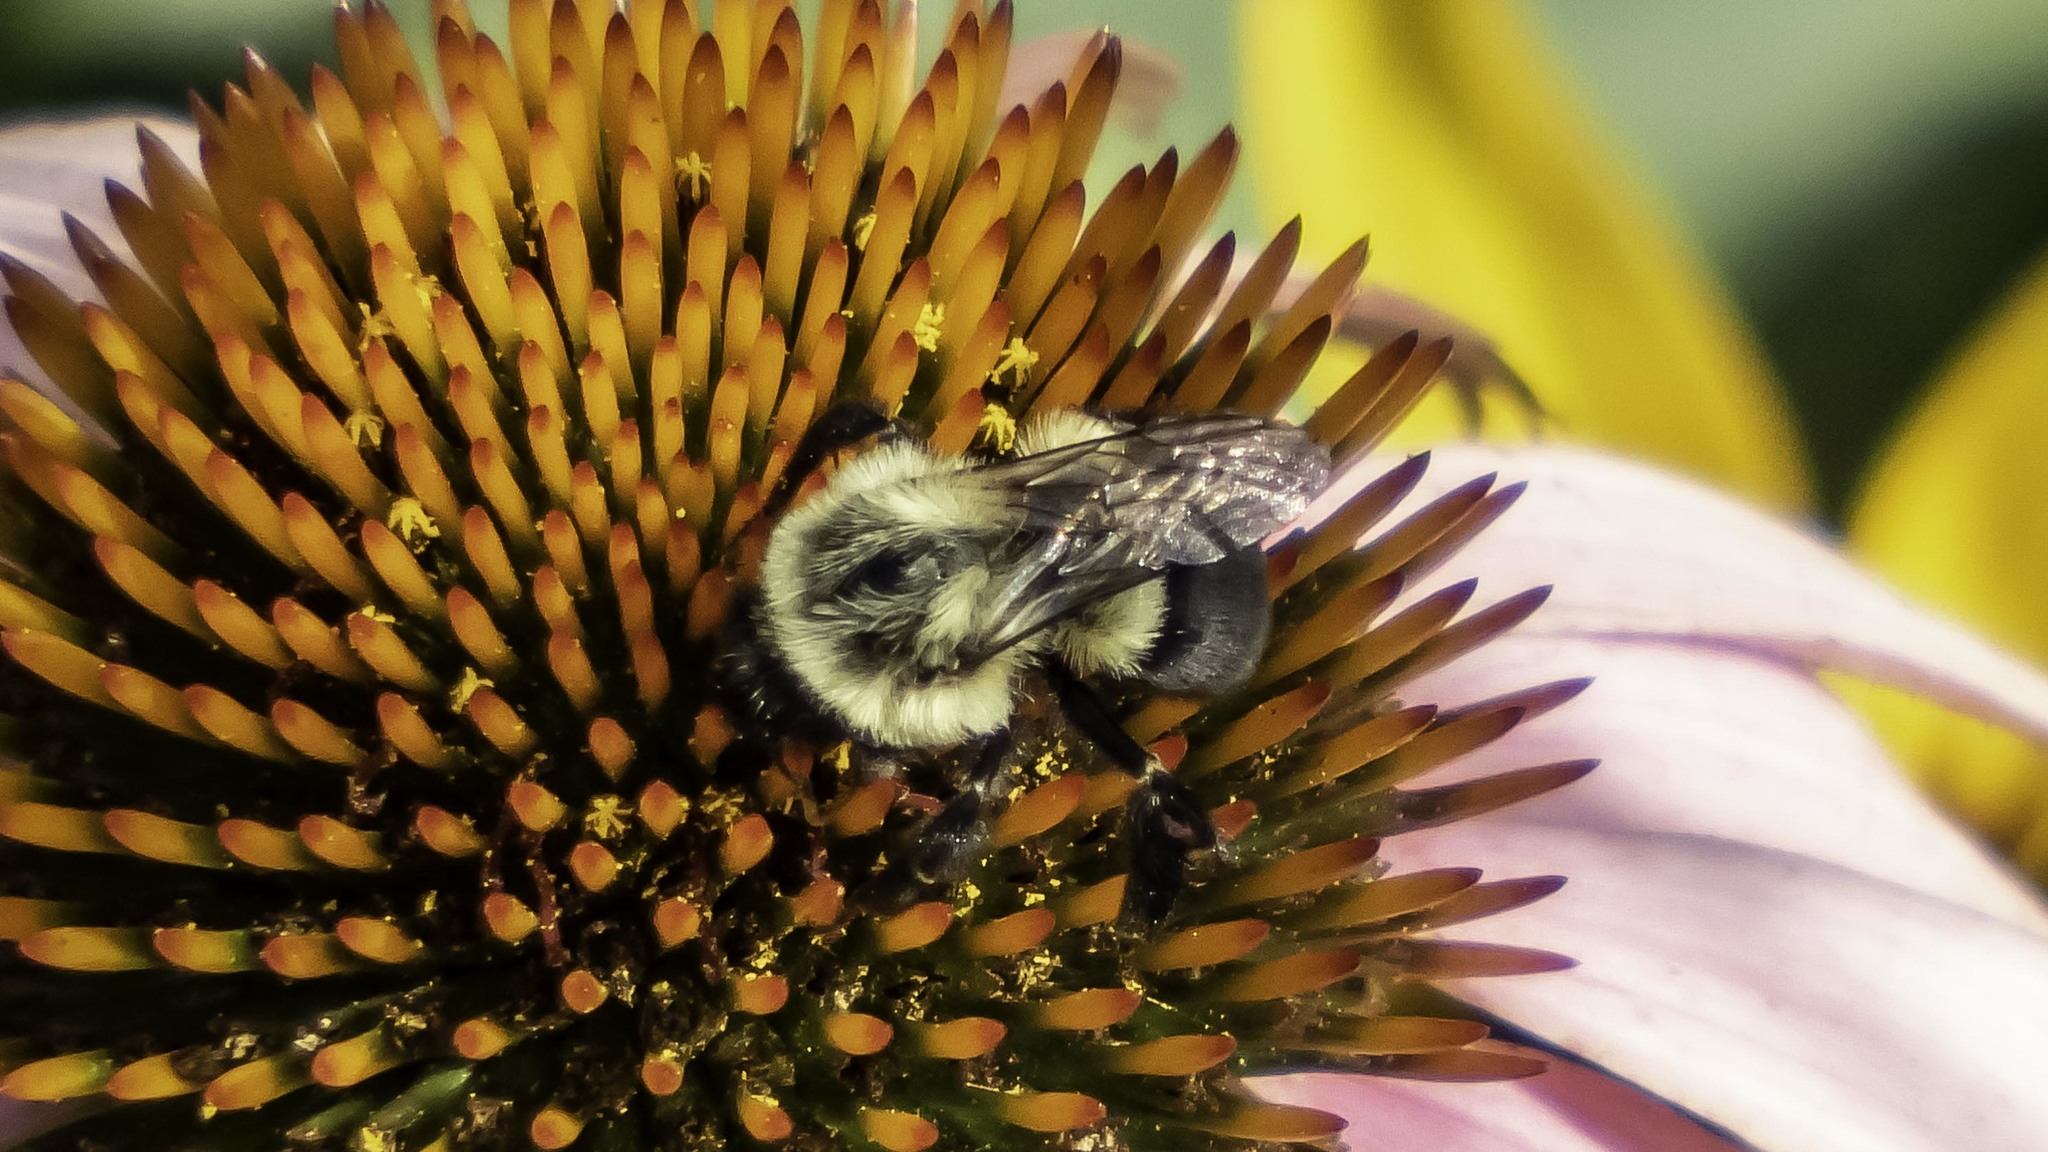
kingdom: Animalia
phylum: Arthropoda
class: Insecta
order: Hymenoptera
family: Apidae
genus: Bombus
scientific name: Bombus impatiens
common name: Common eastern bumble bee
